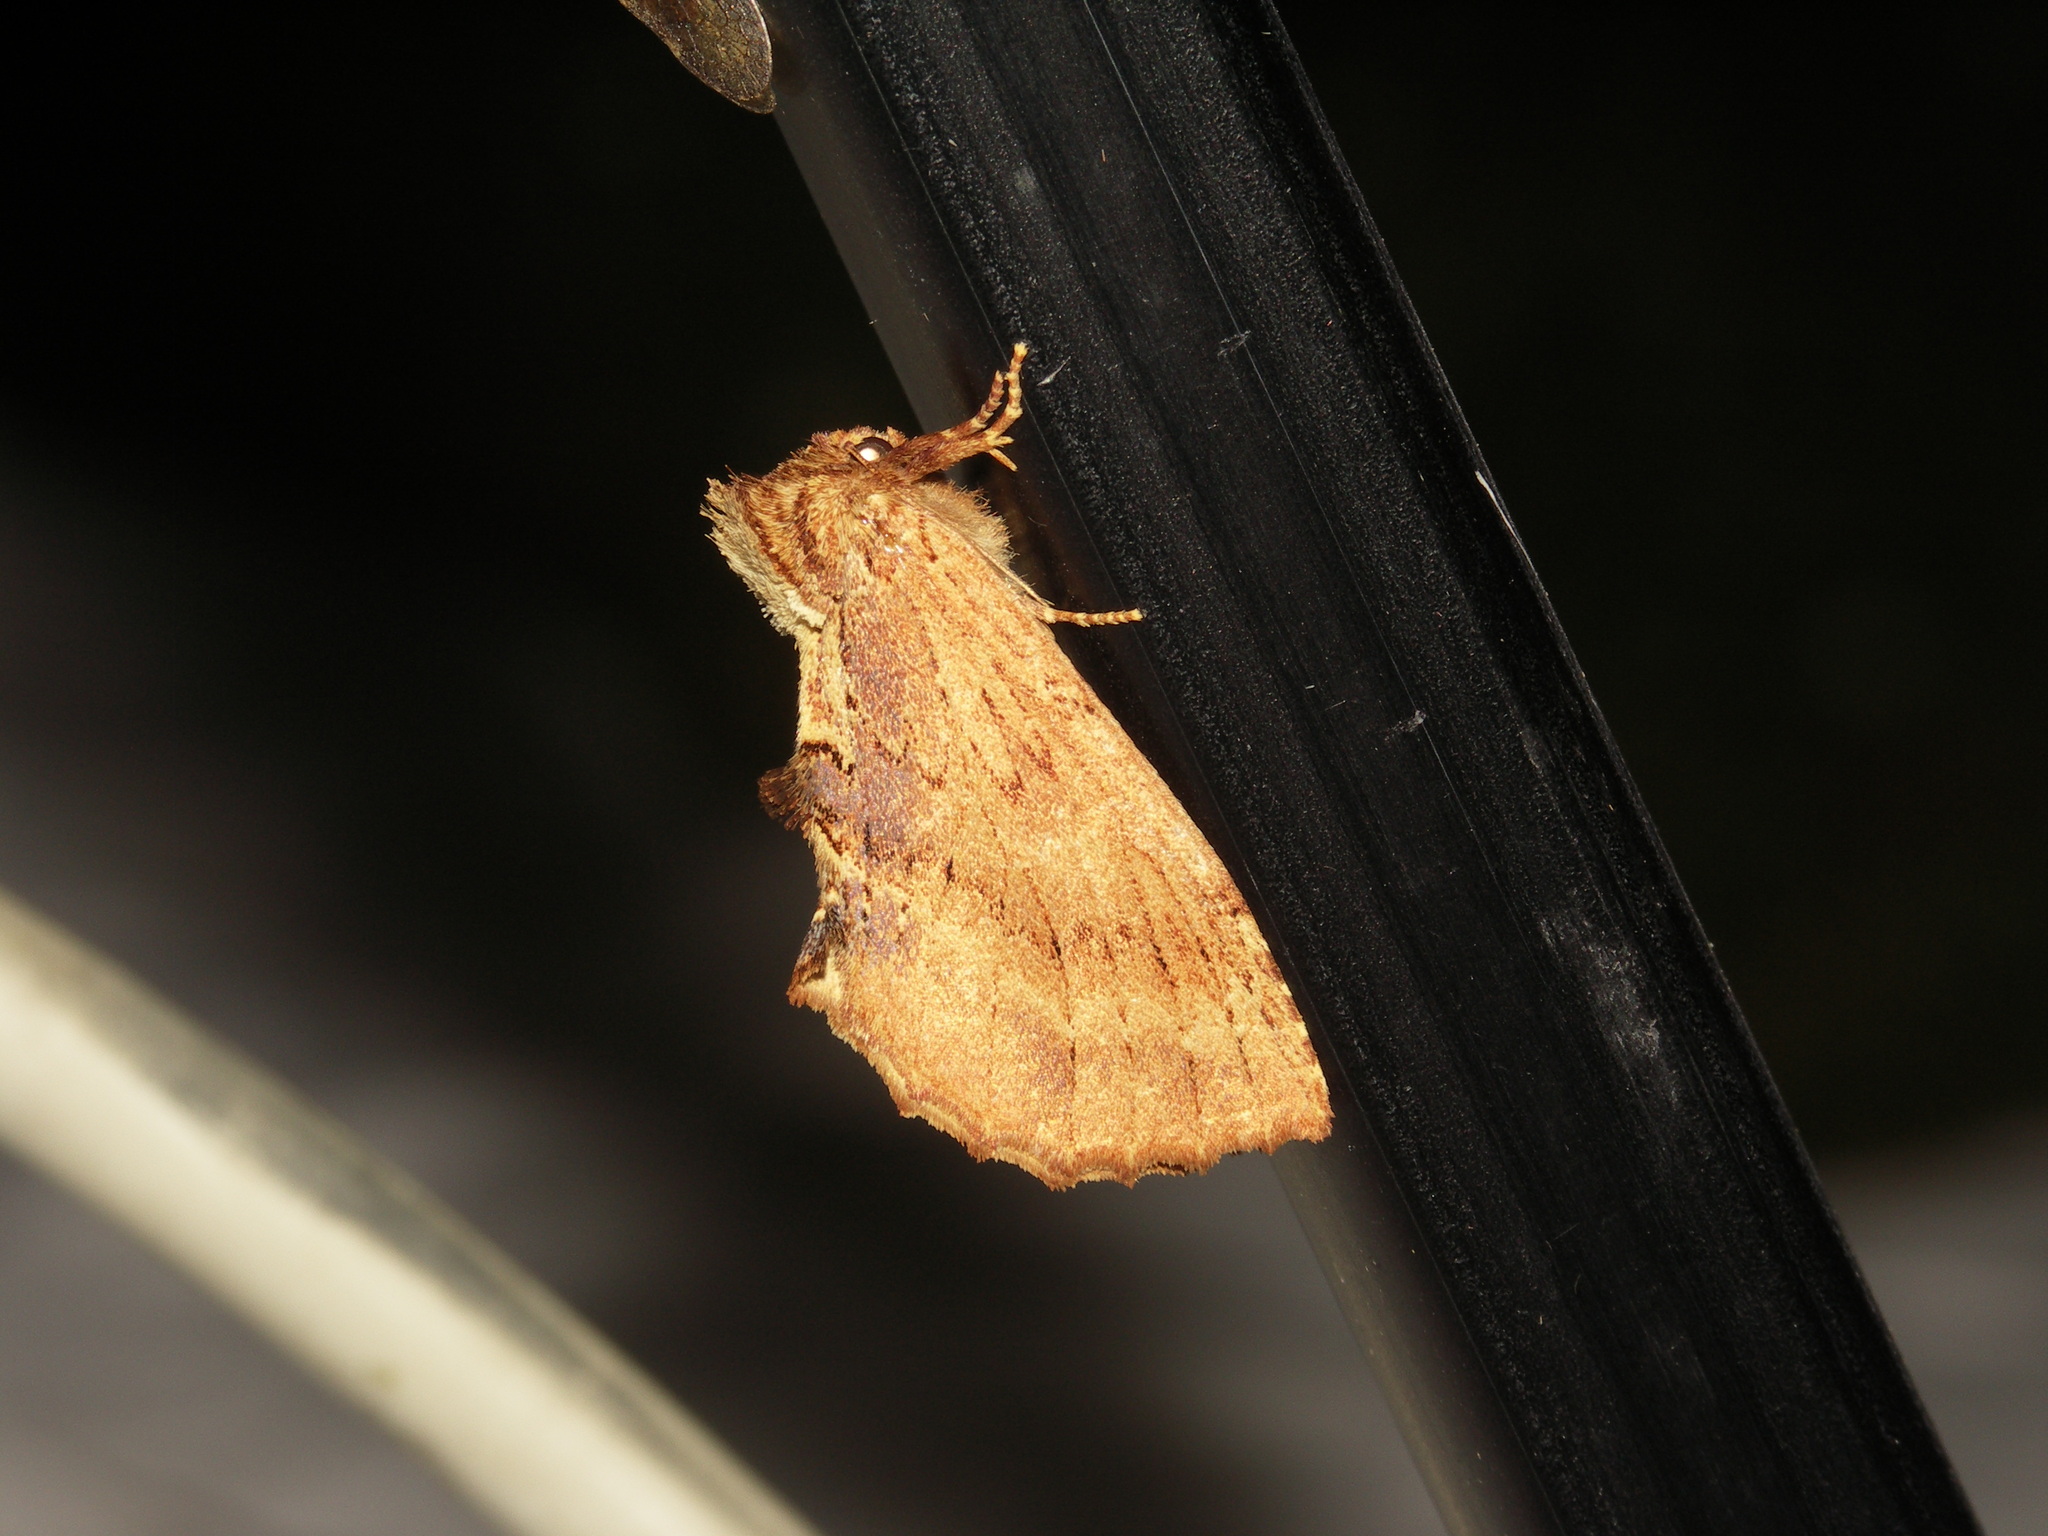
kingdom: Animalia
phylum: Arthropoda
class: Insecta
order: Lepidoptera
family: Notodontidae
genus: Ptilodon
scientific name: Ptilodon capucina
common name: Coxcomb prominent
